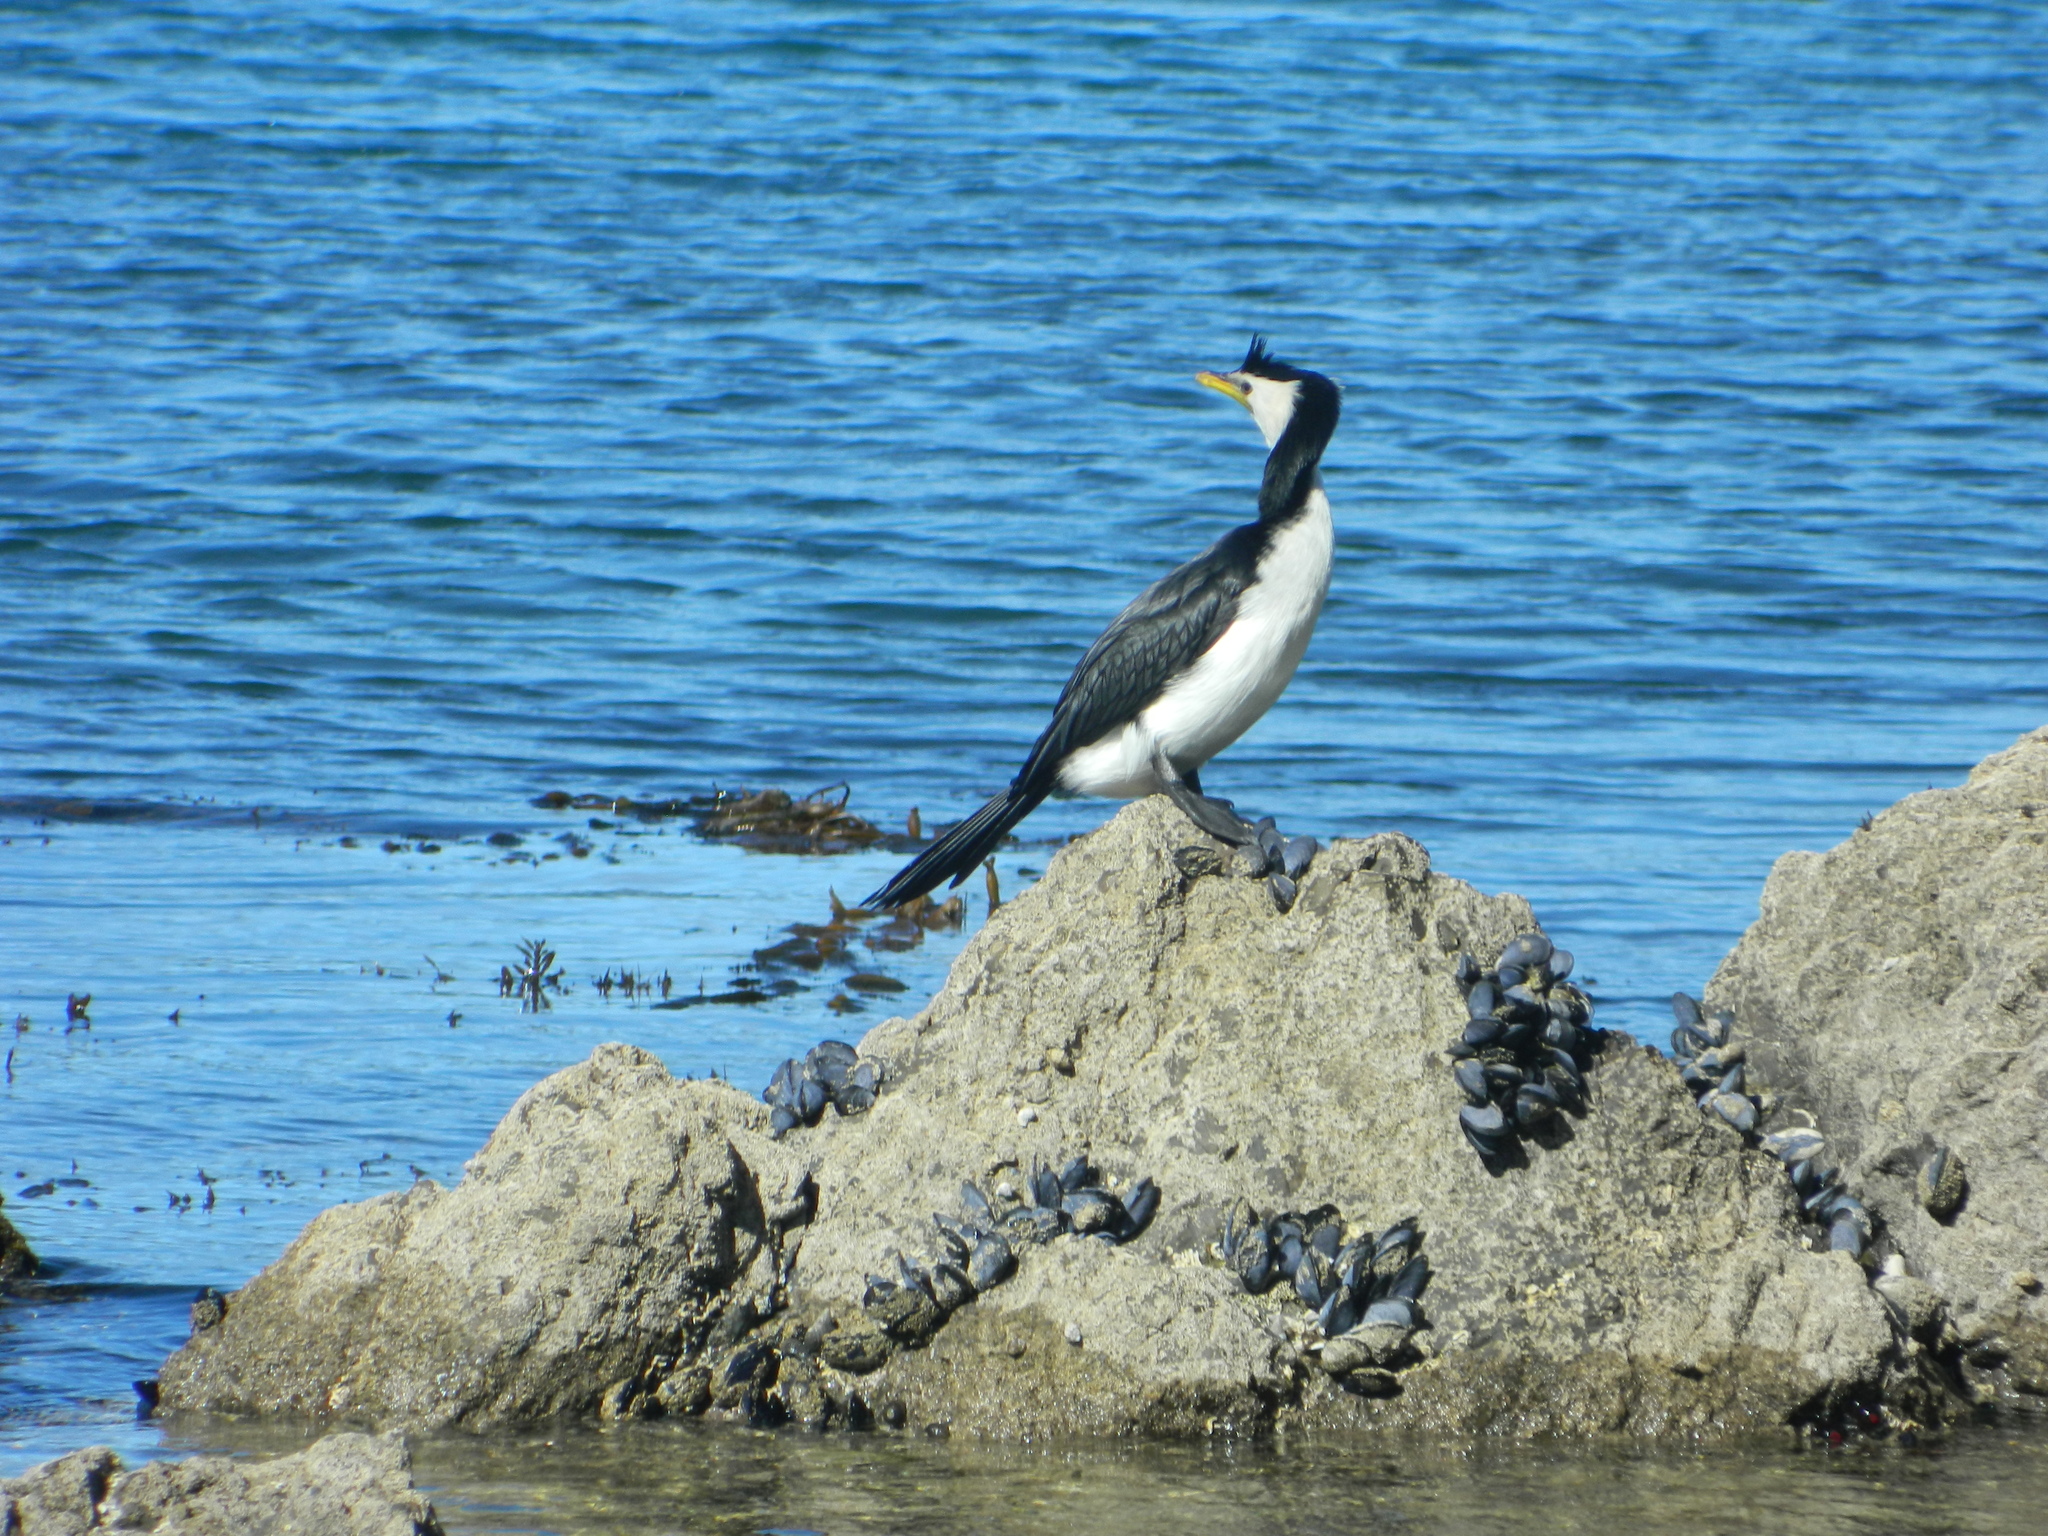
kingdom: Animalia
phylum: Chordata
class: Aves
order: Suliformes
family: Phalacrocoracidae
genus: Microcarbo
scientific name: Microcarbo melanoleucos
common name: Little pied cormorant
